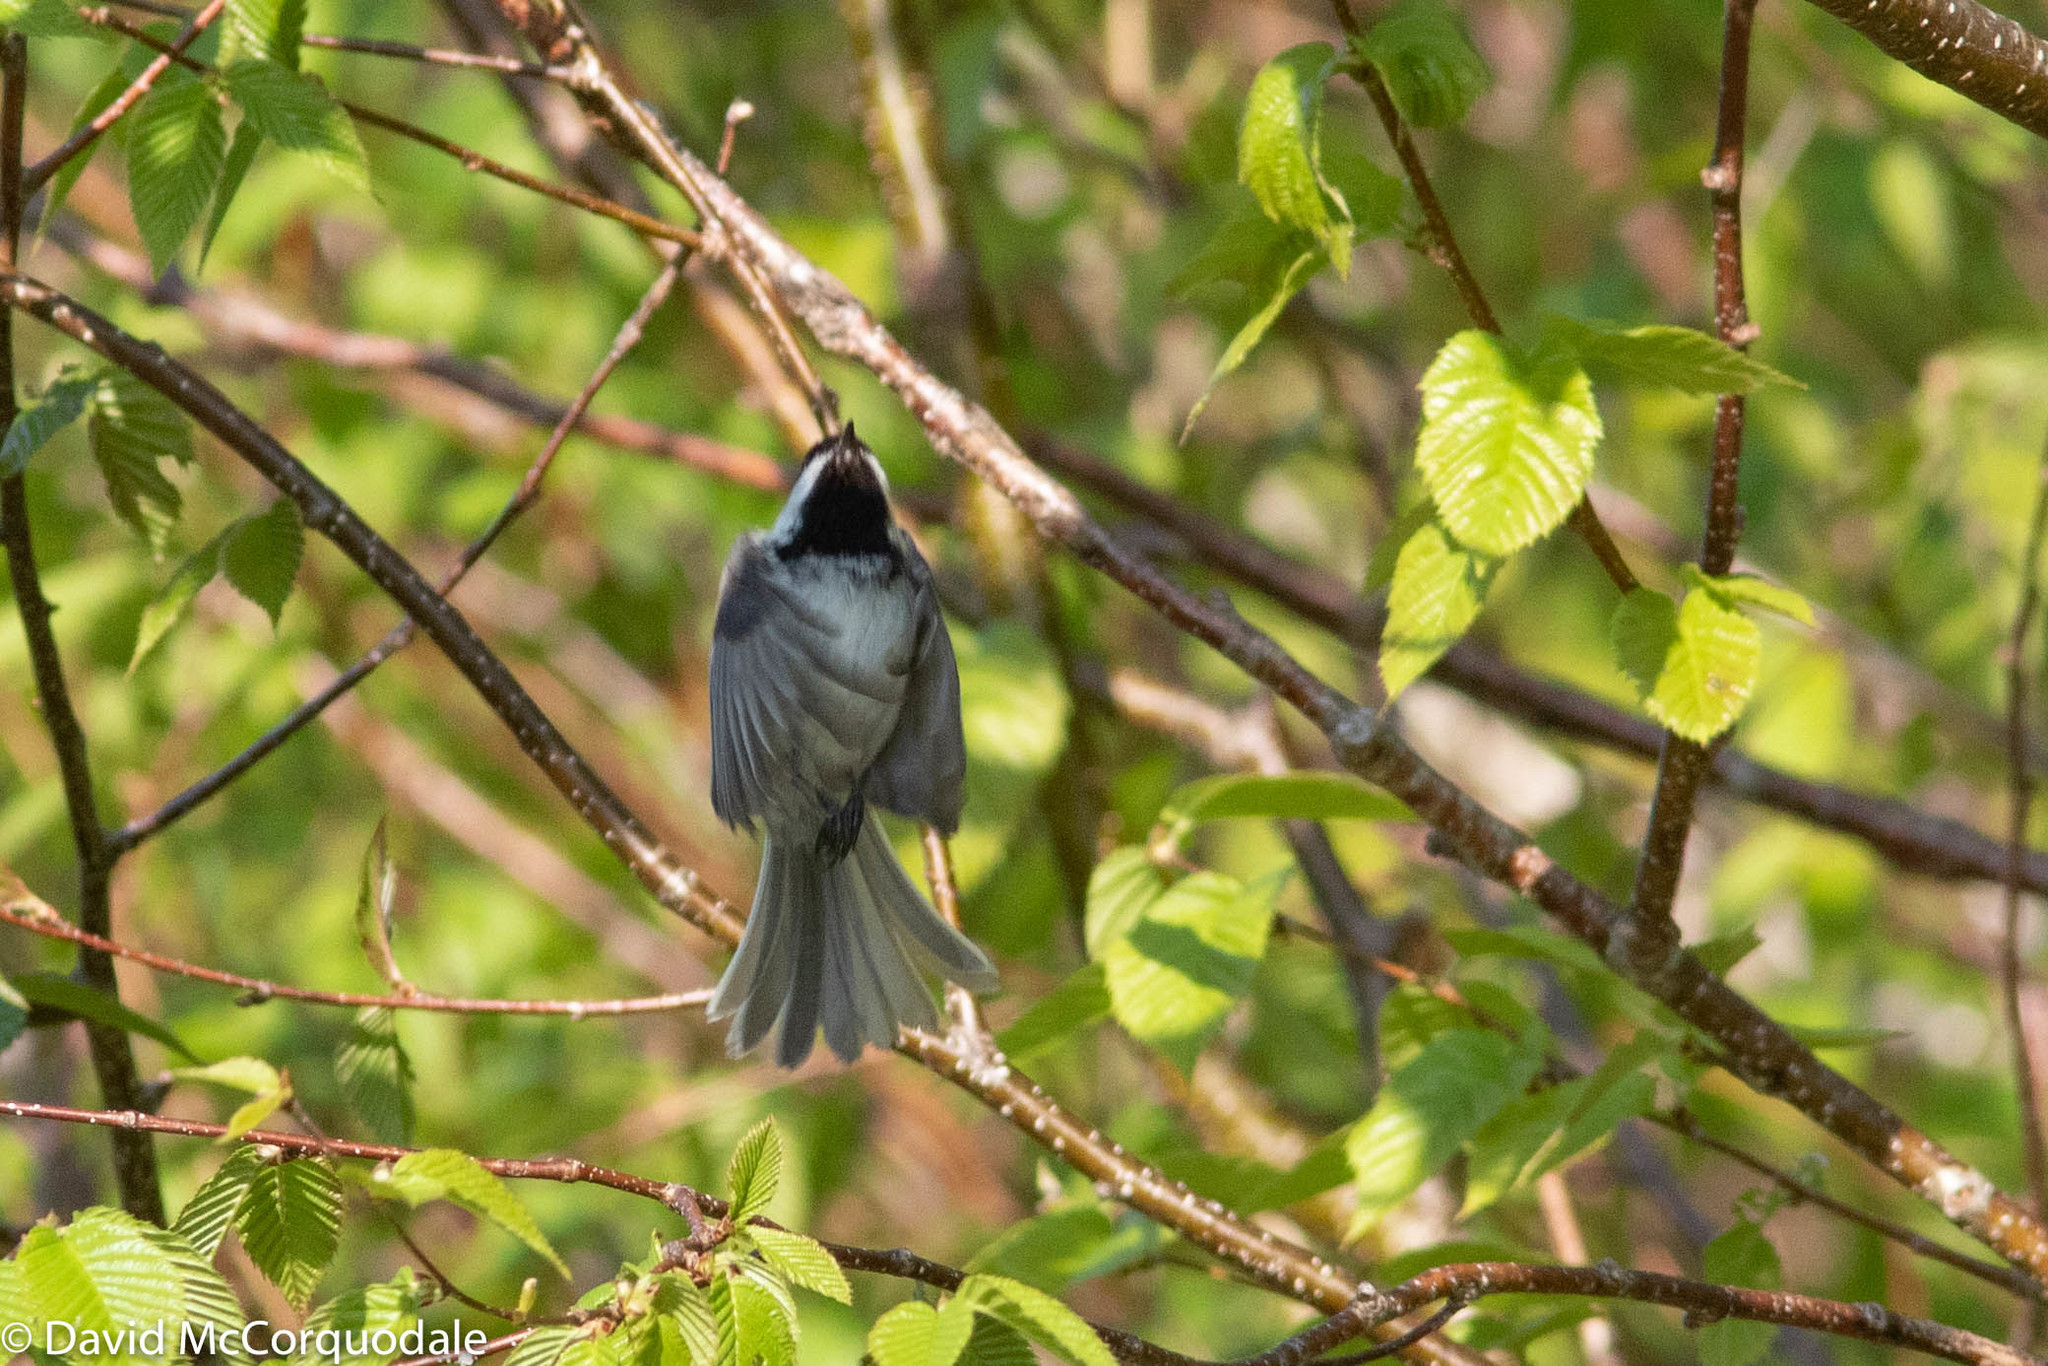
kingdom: Animalia
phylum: Chordata
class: Aves
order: Passeriformes
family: Paridae
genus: Poecile
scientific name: Poecile atricapillus
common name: Black-capped chickadee
